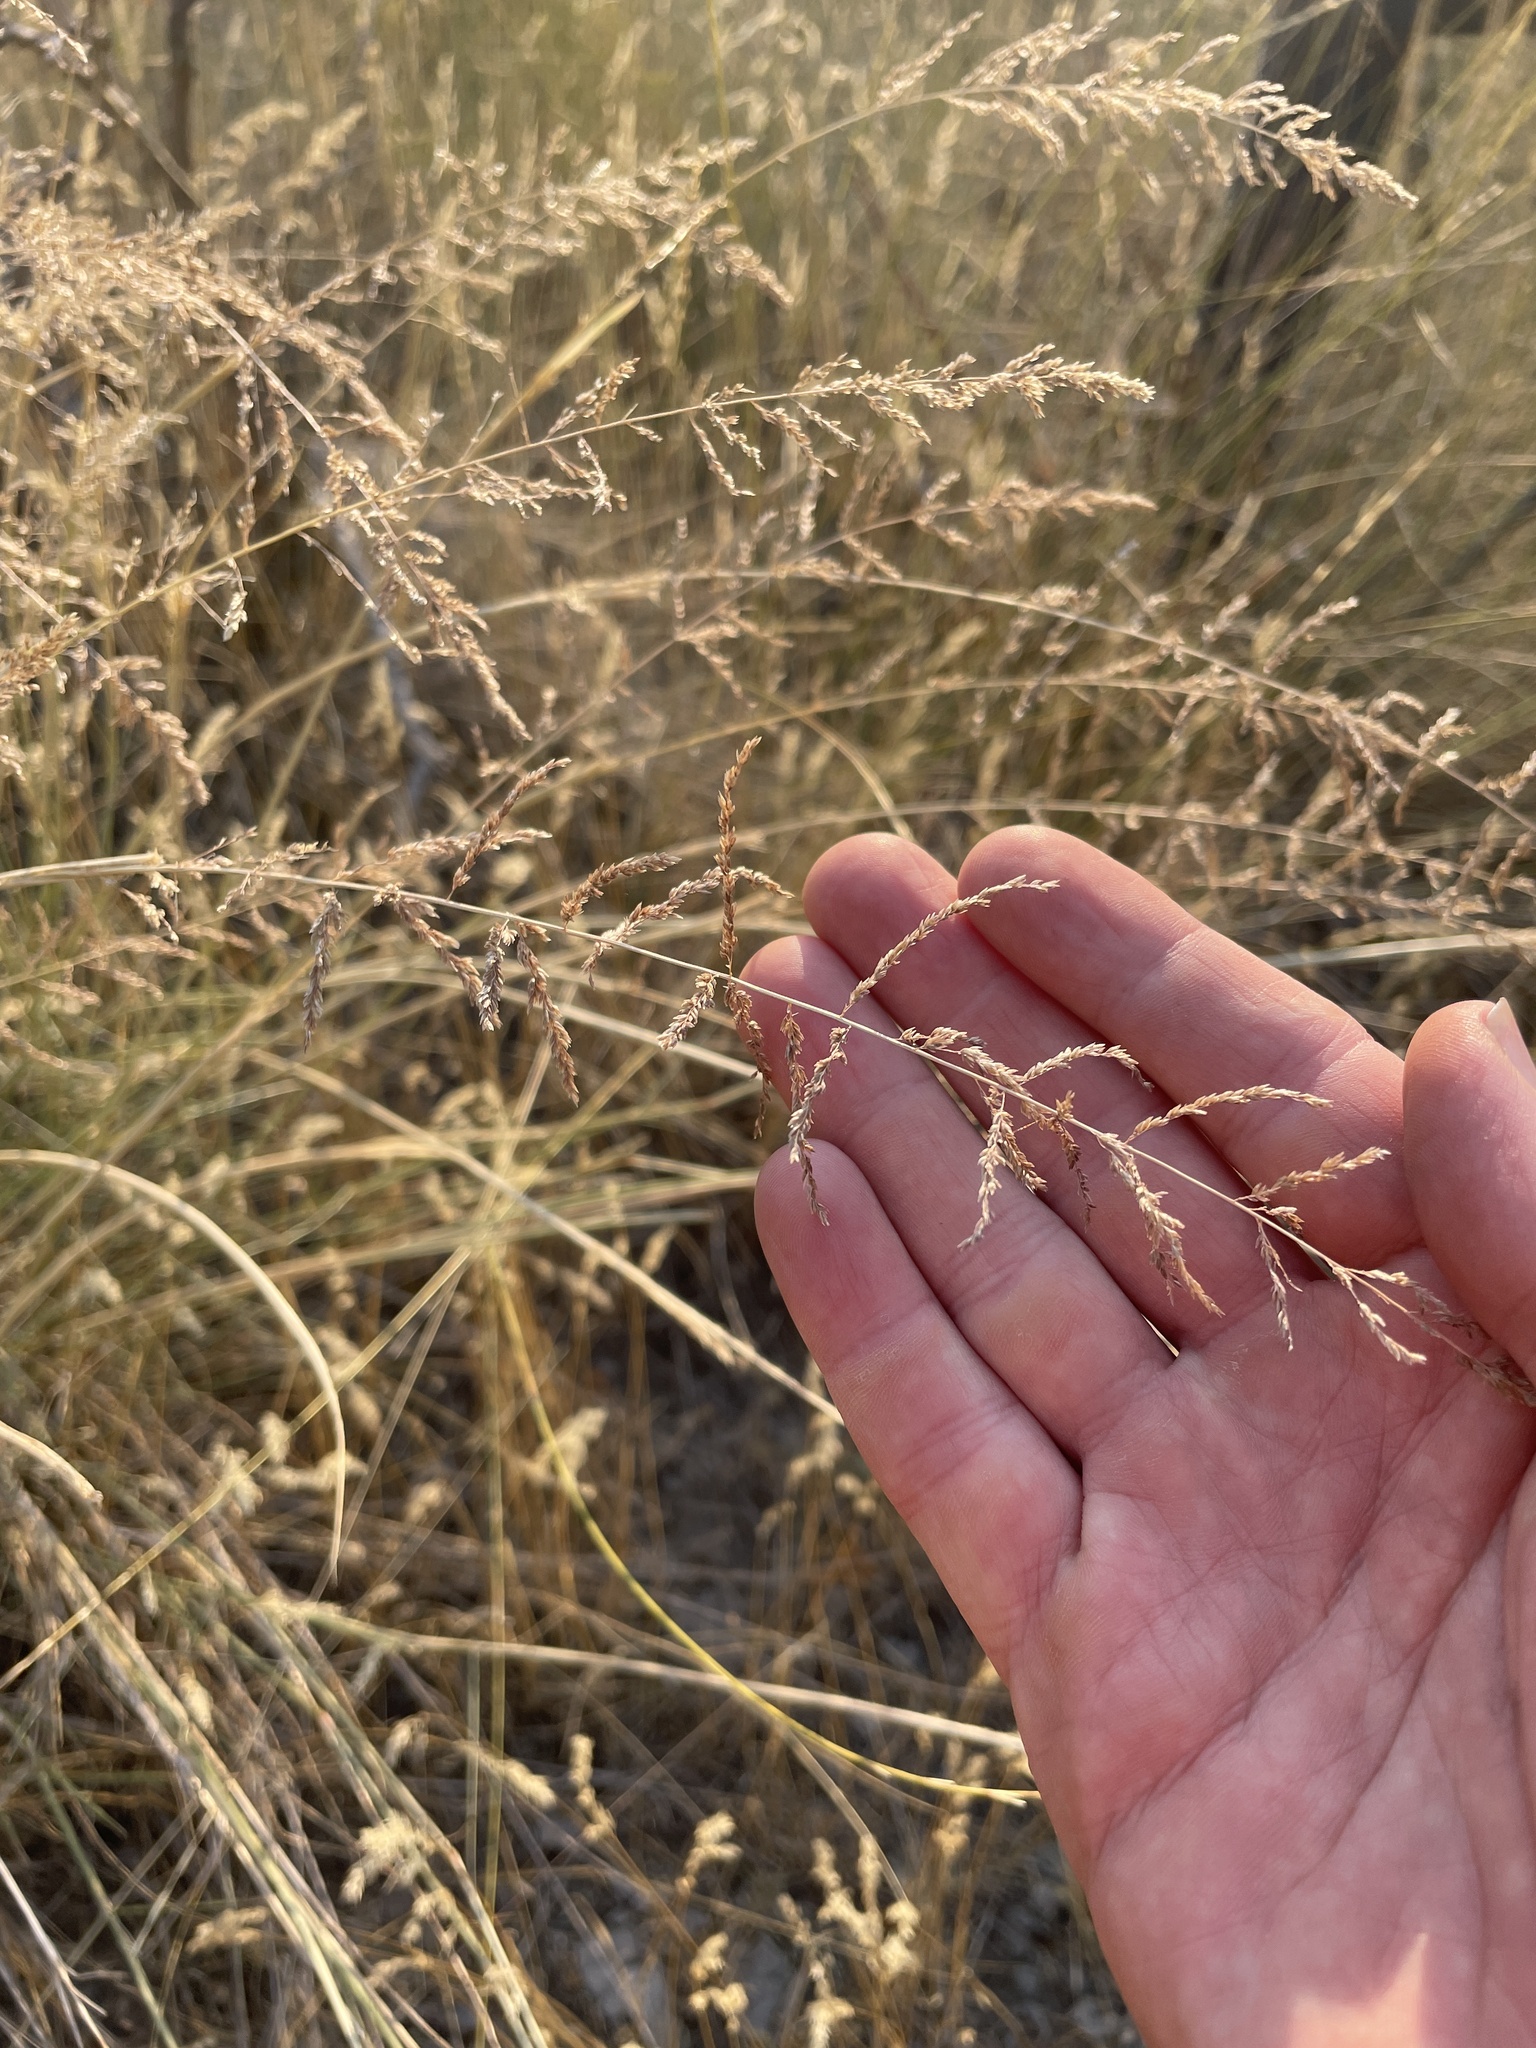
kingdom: Plantae
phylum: Tracheophyta
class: Liliopsida
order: Poales
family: Poaceae
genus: Sporobolus
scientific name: Sporobolus cryptandrus
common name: Sand dropseed
